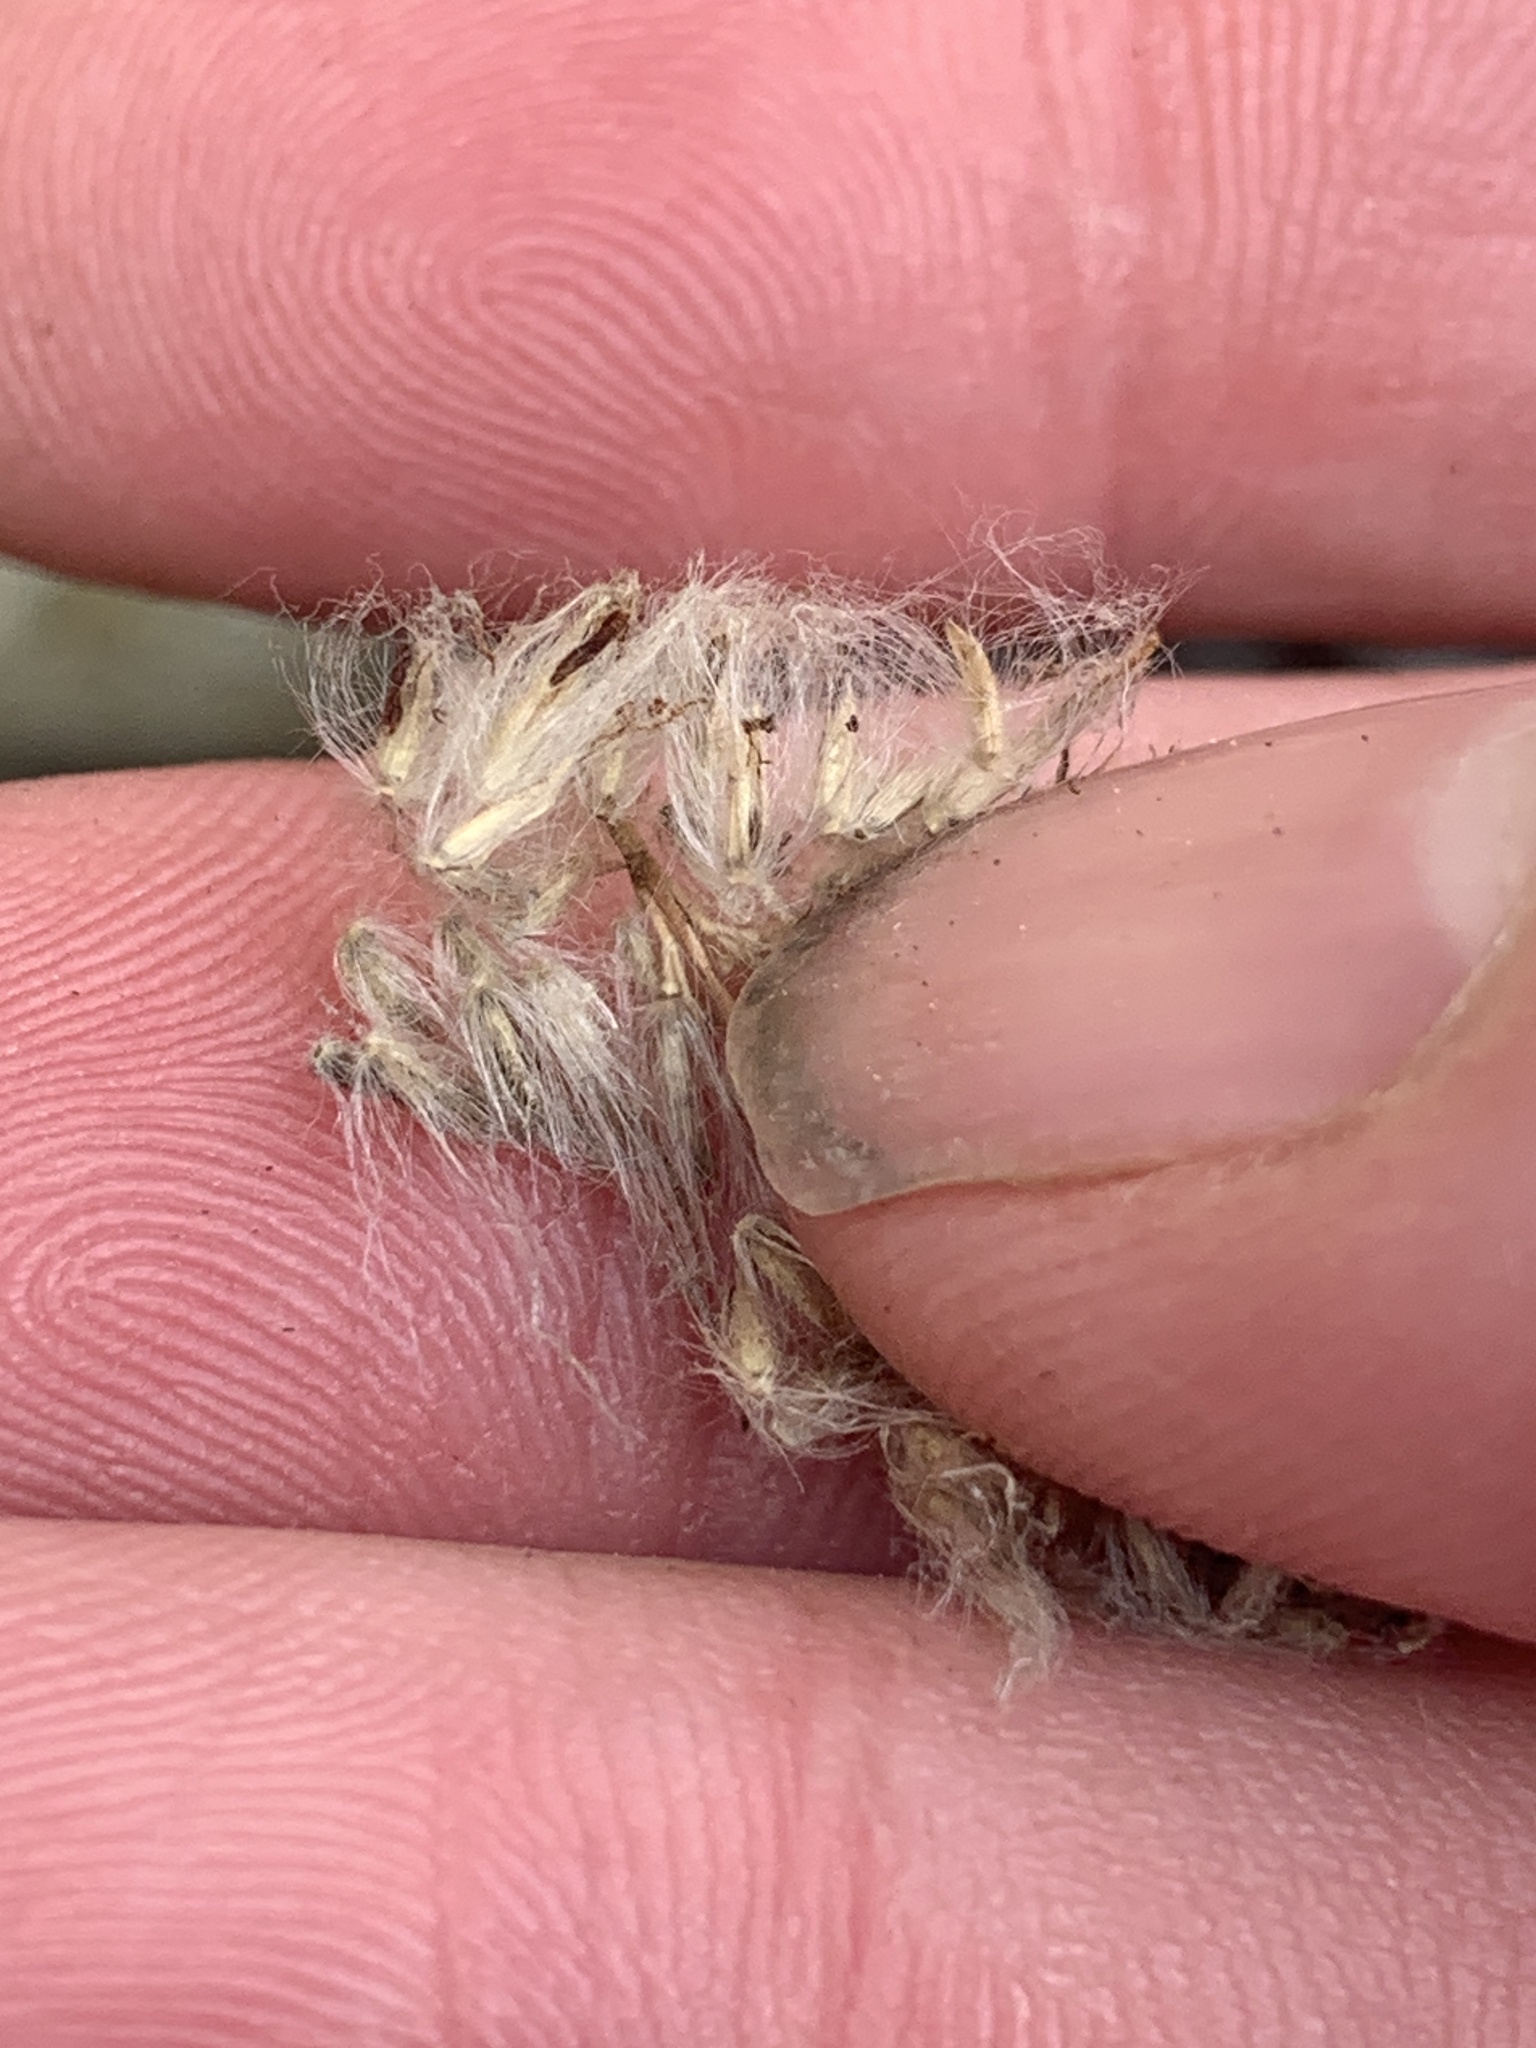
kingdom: Plantae
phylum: Tracheophyta
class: Liliopsida
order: Poales
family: Poaceae
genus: Imperata
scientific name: Imperata brevifolia
